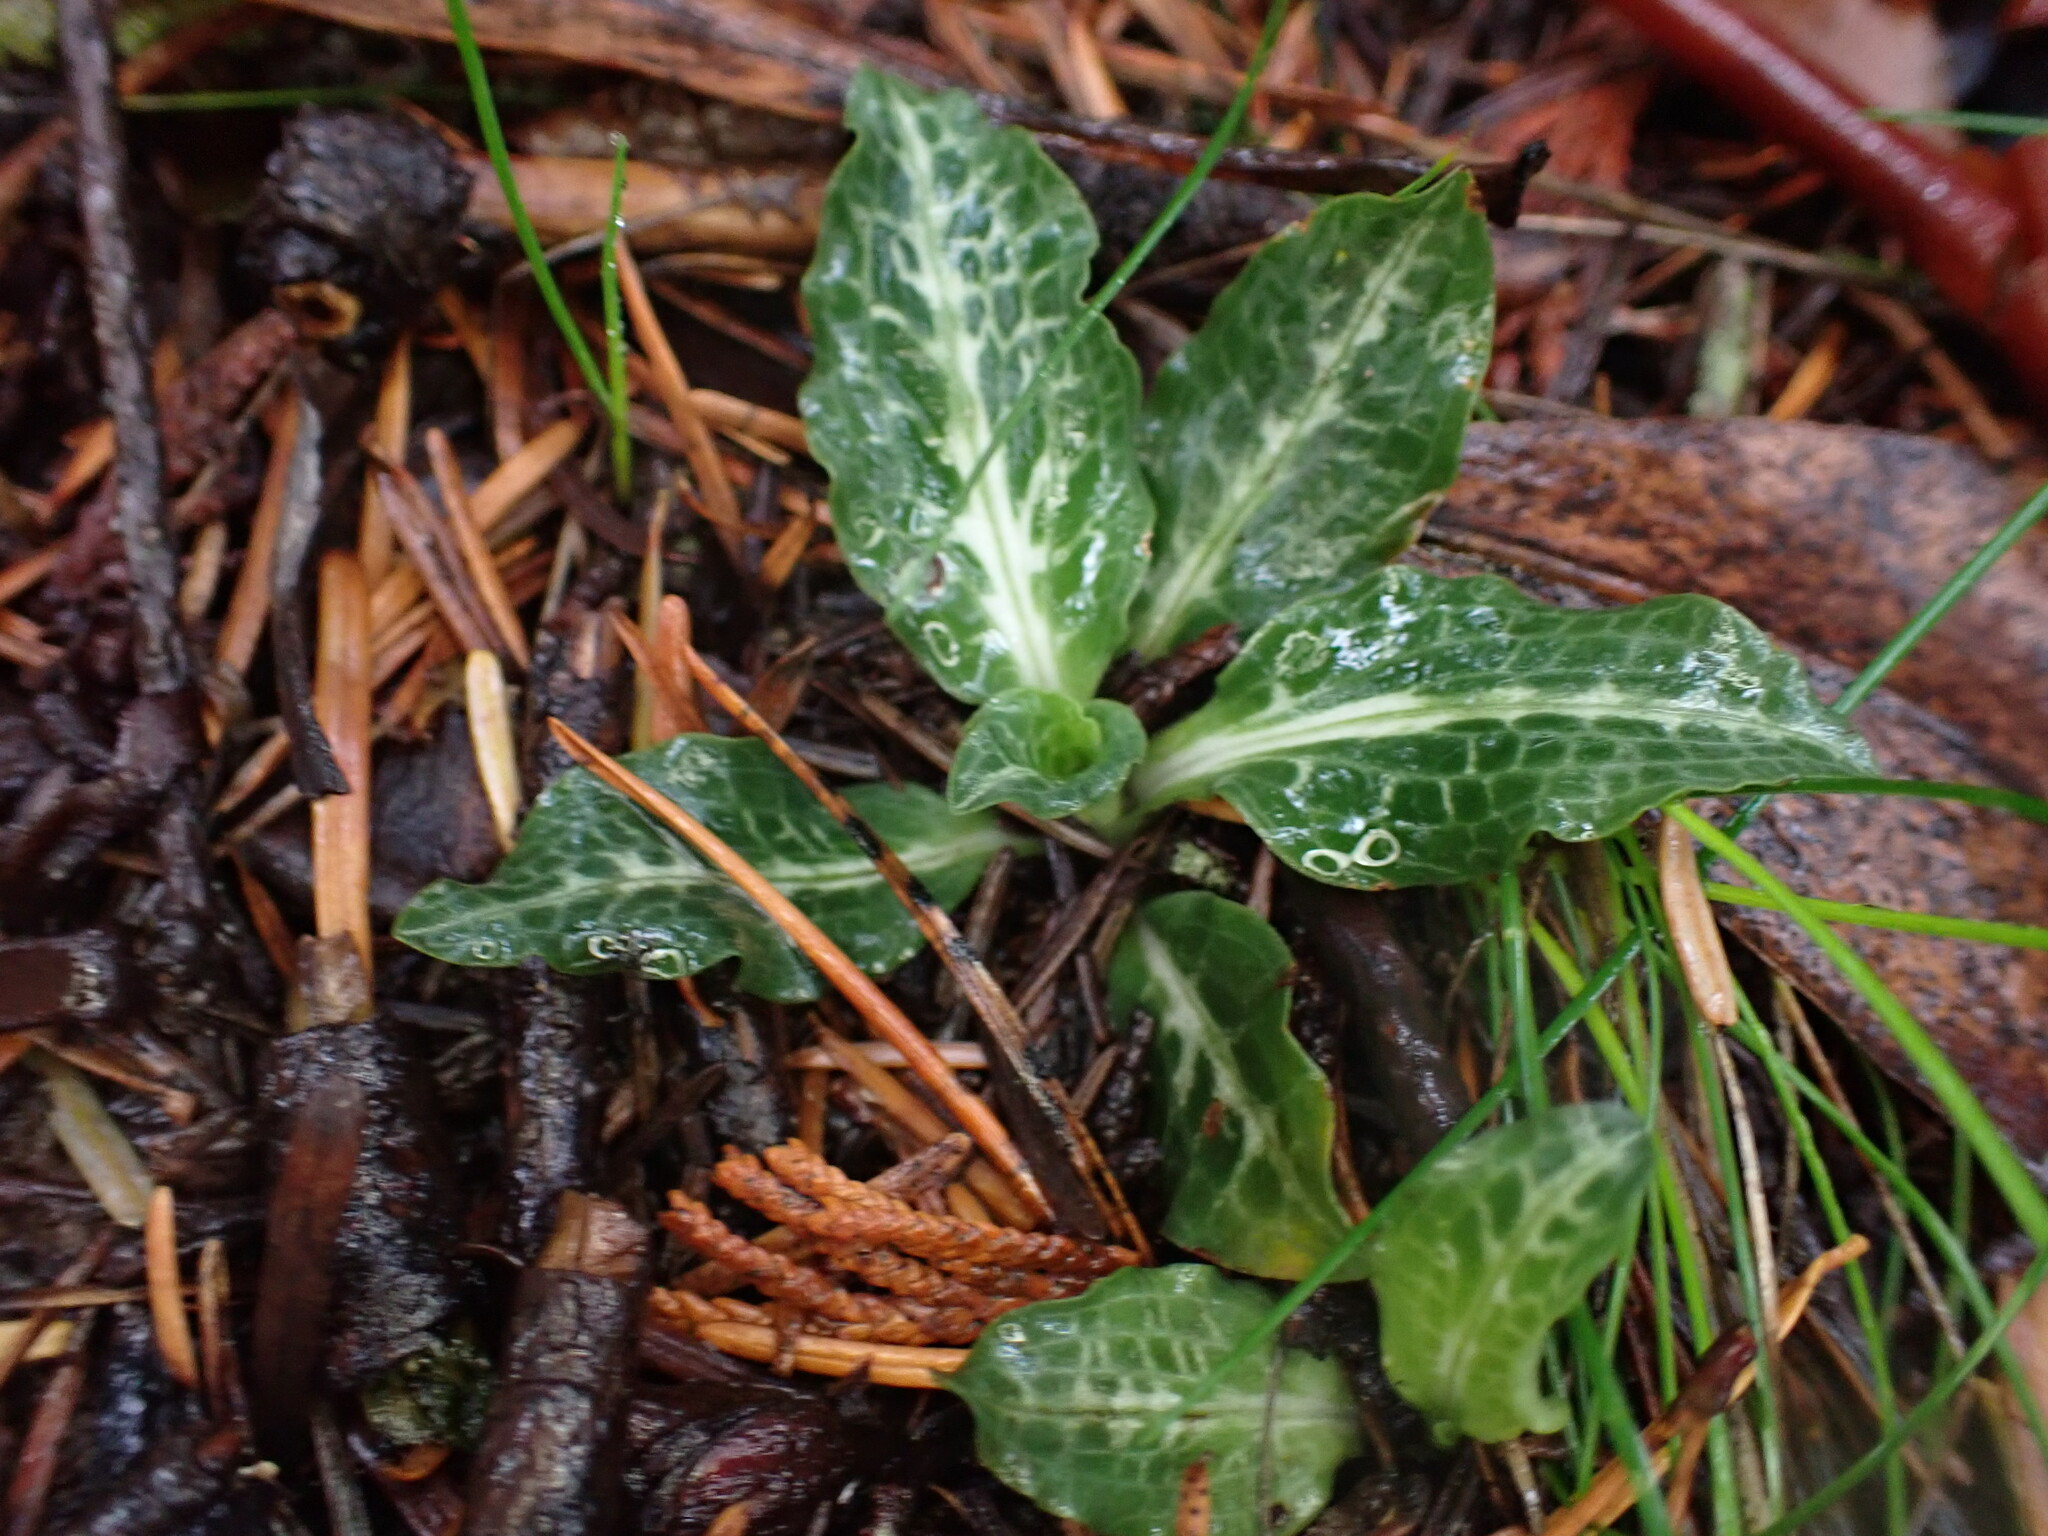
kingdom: Plantae
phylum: Tracheophyta
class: Liliopsida
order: Asparagales
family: Orchidaceae
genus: Goodyera
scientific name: Goodyera oblongifolia
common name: Giant rattlesnake-plantain
